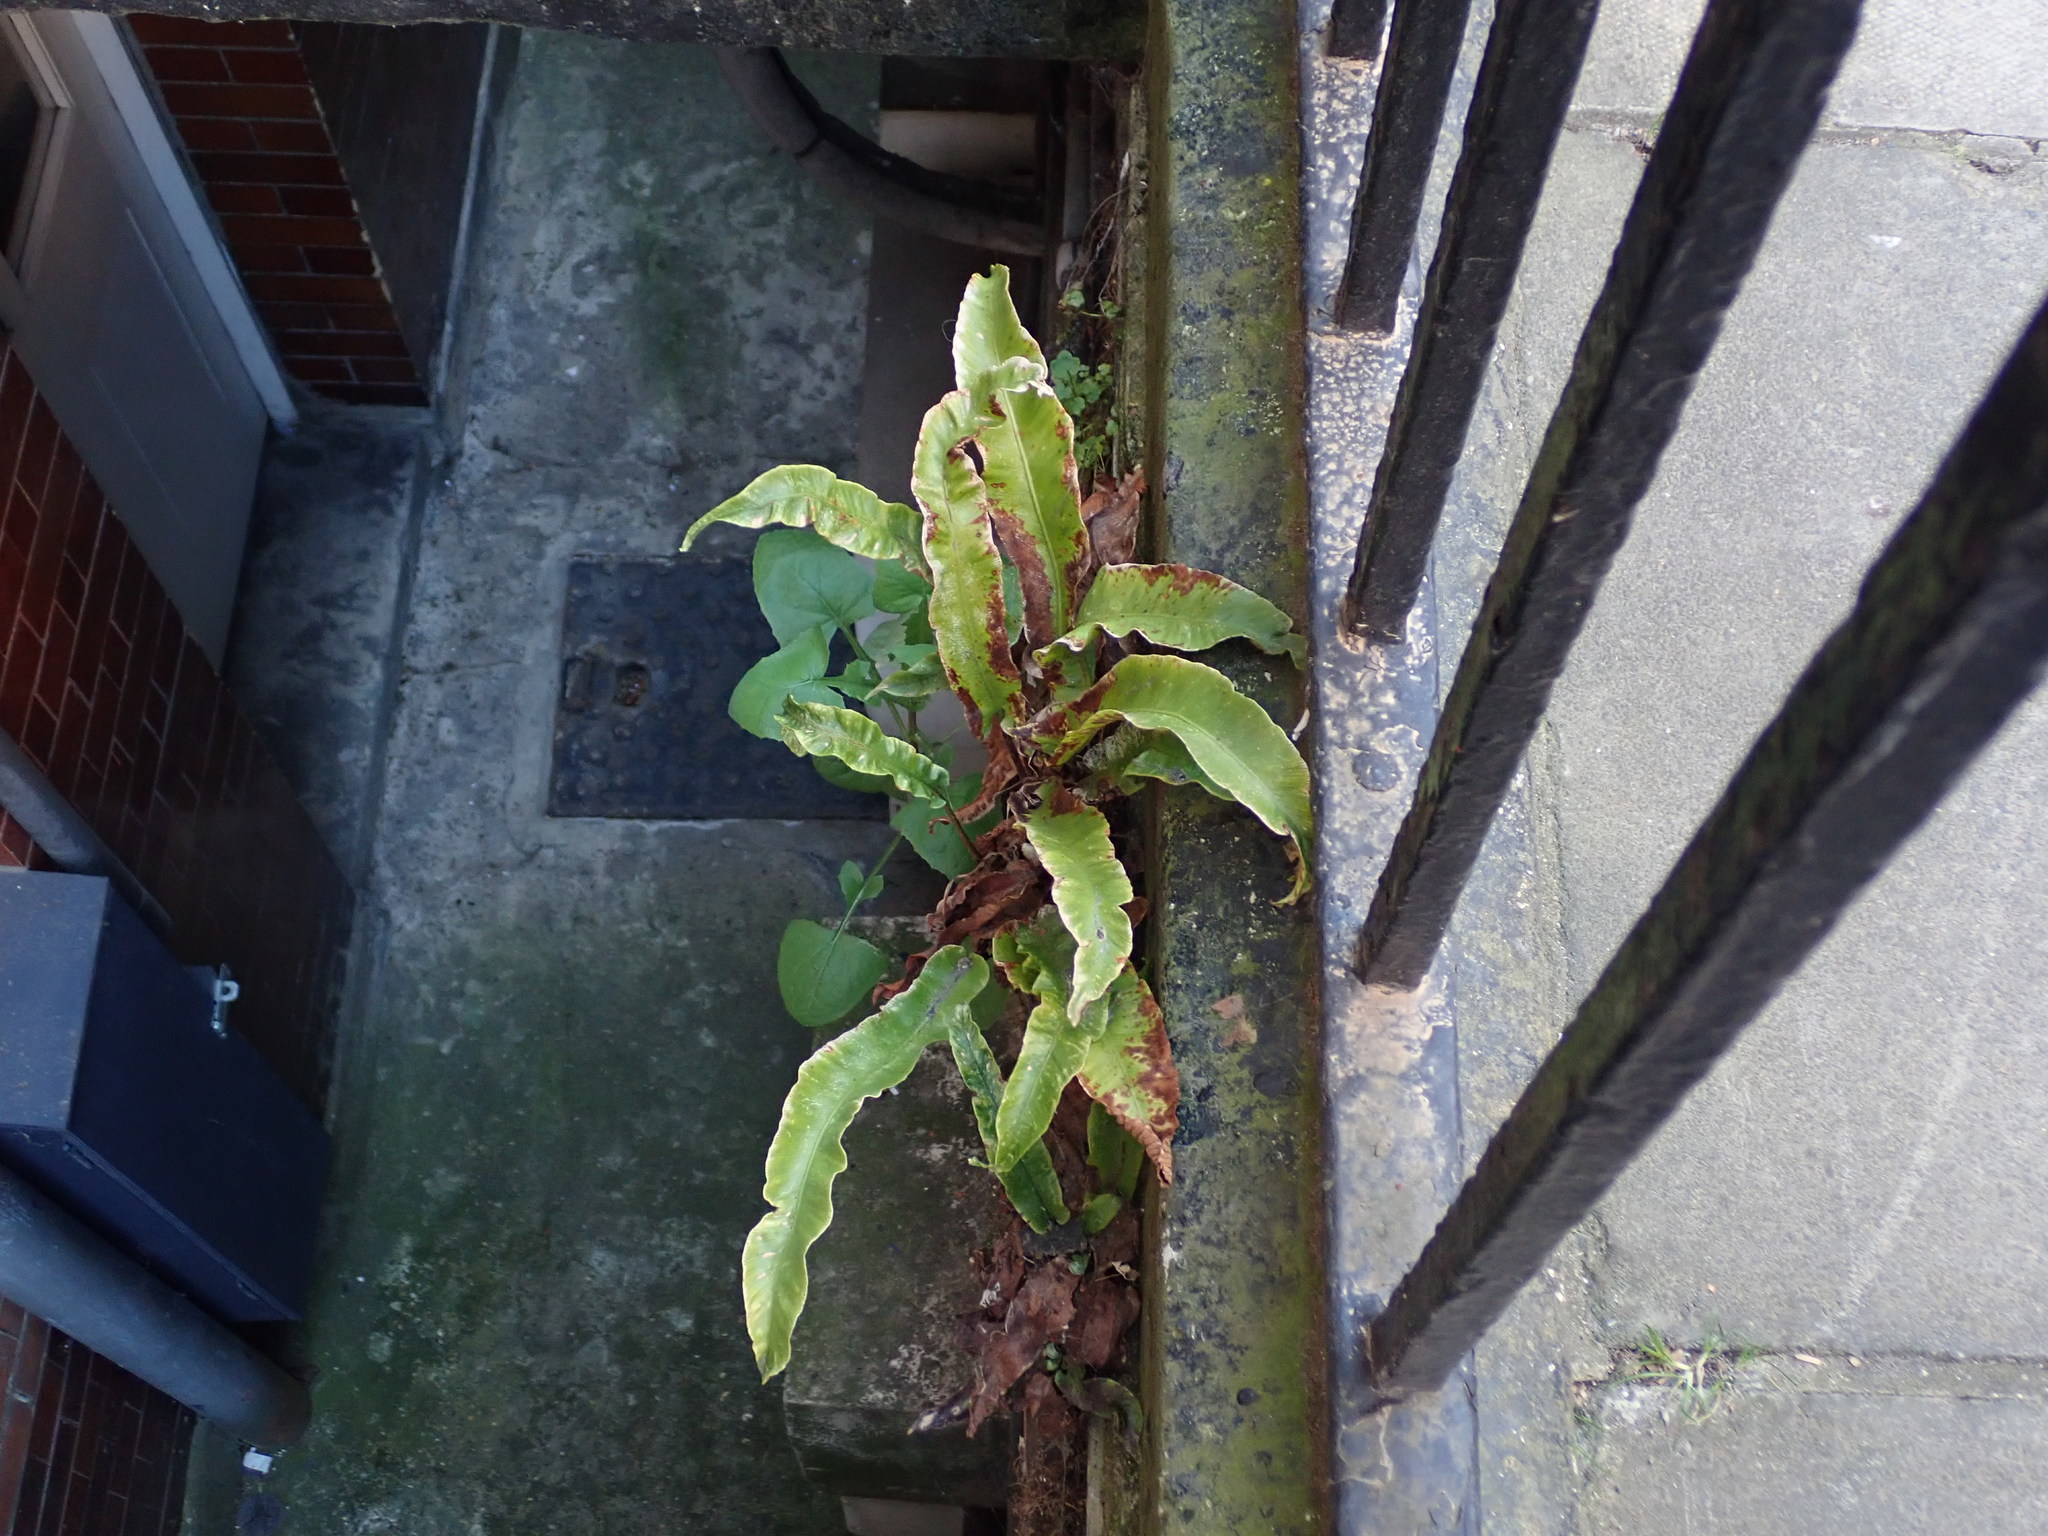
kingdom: Plantae
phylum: Tracheophyta
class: Polypodiopsida
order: Polypodiales
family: Aspleniaceae
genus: Asplenium
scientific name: Asplenium scolopendrium
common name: Hart's-tongue fern
